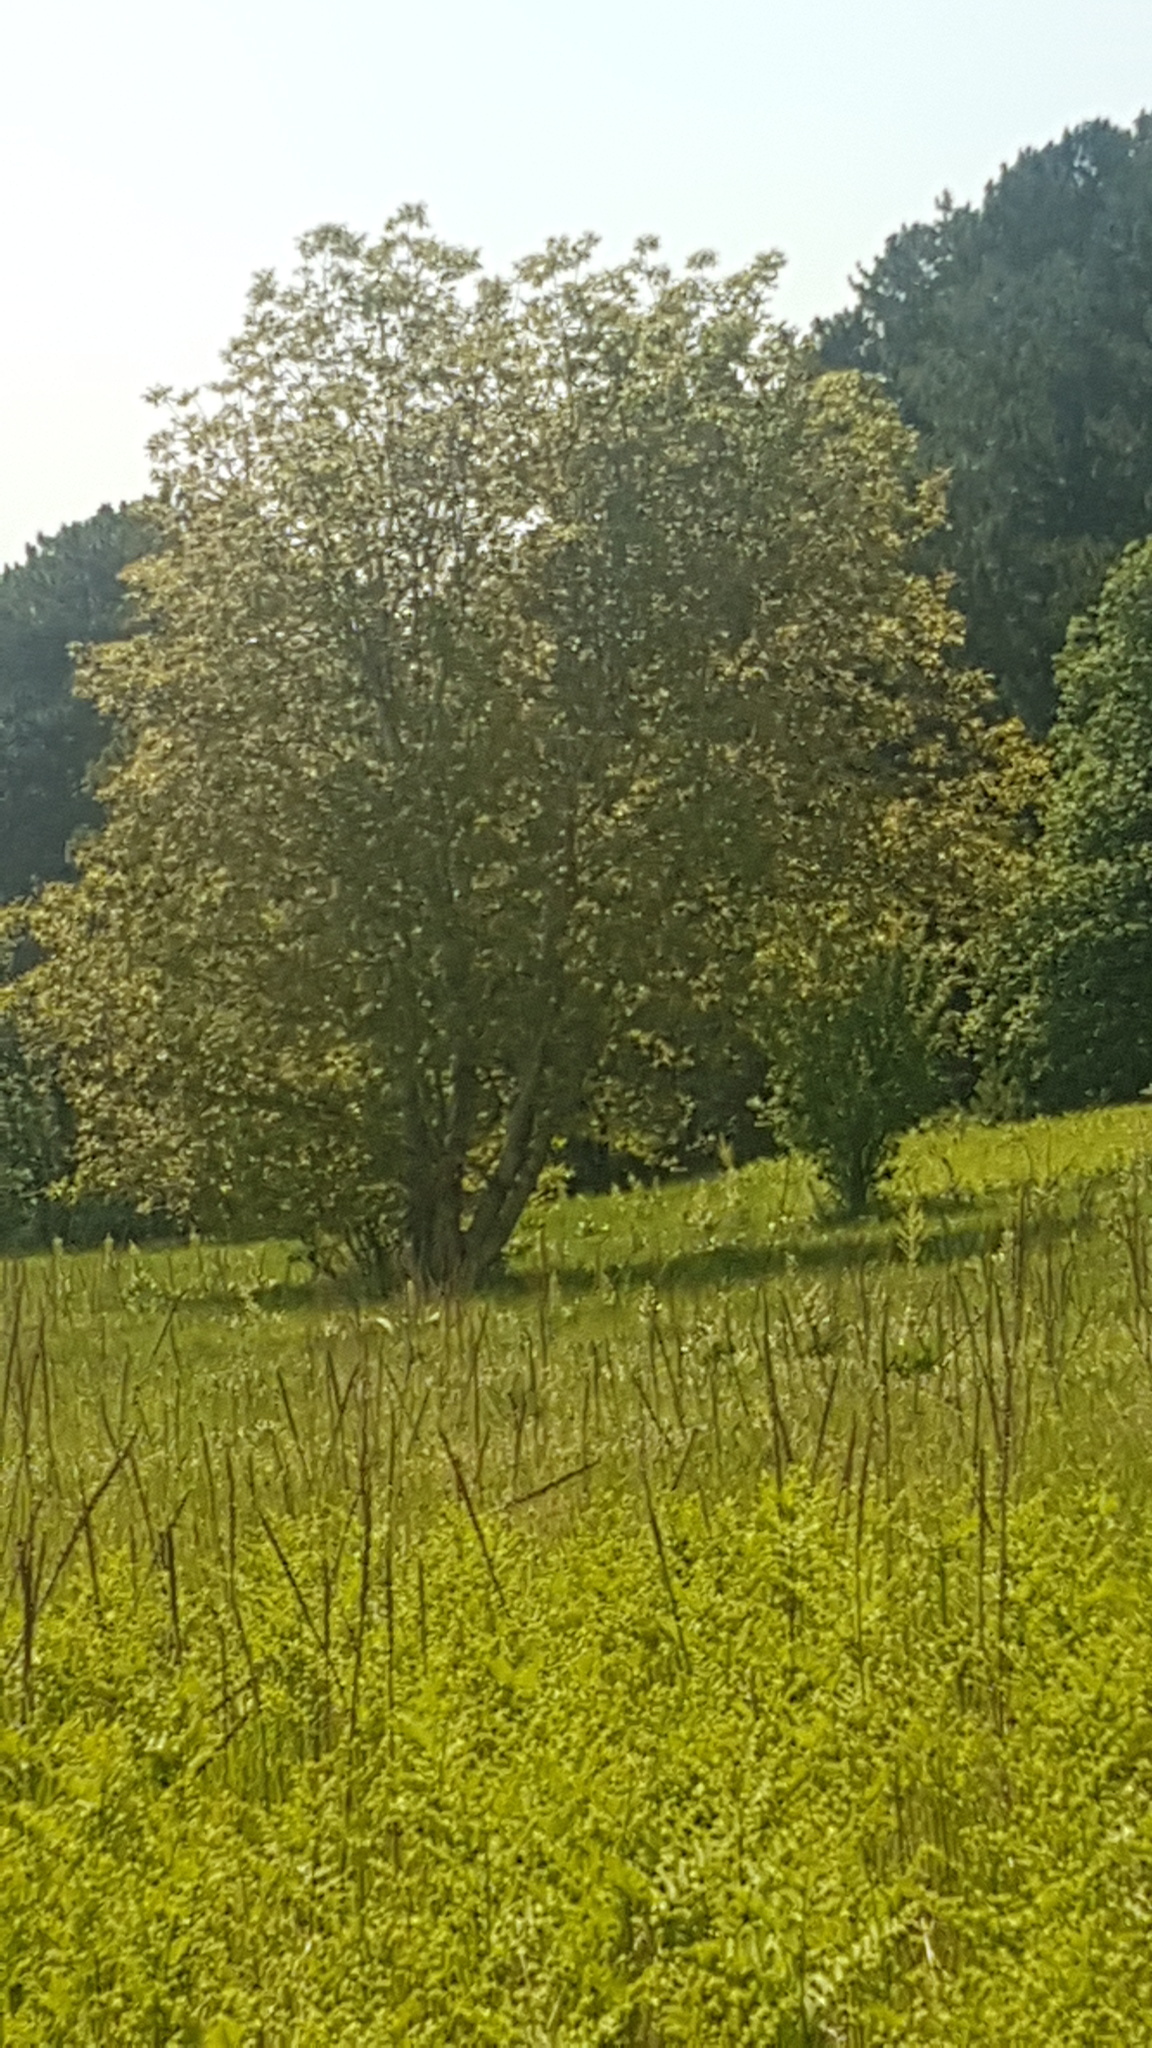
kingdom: Plantae
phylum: Tracheophyta
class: Magnoliopsida
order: Fagales
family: Betulaceae
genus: Alnus
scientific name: Alnus glutinosa
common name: Black alder
